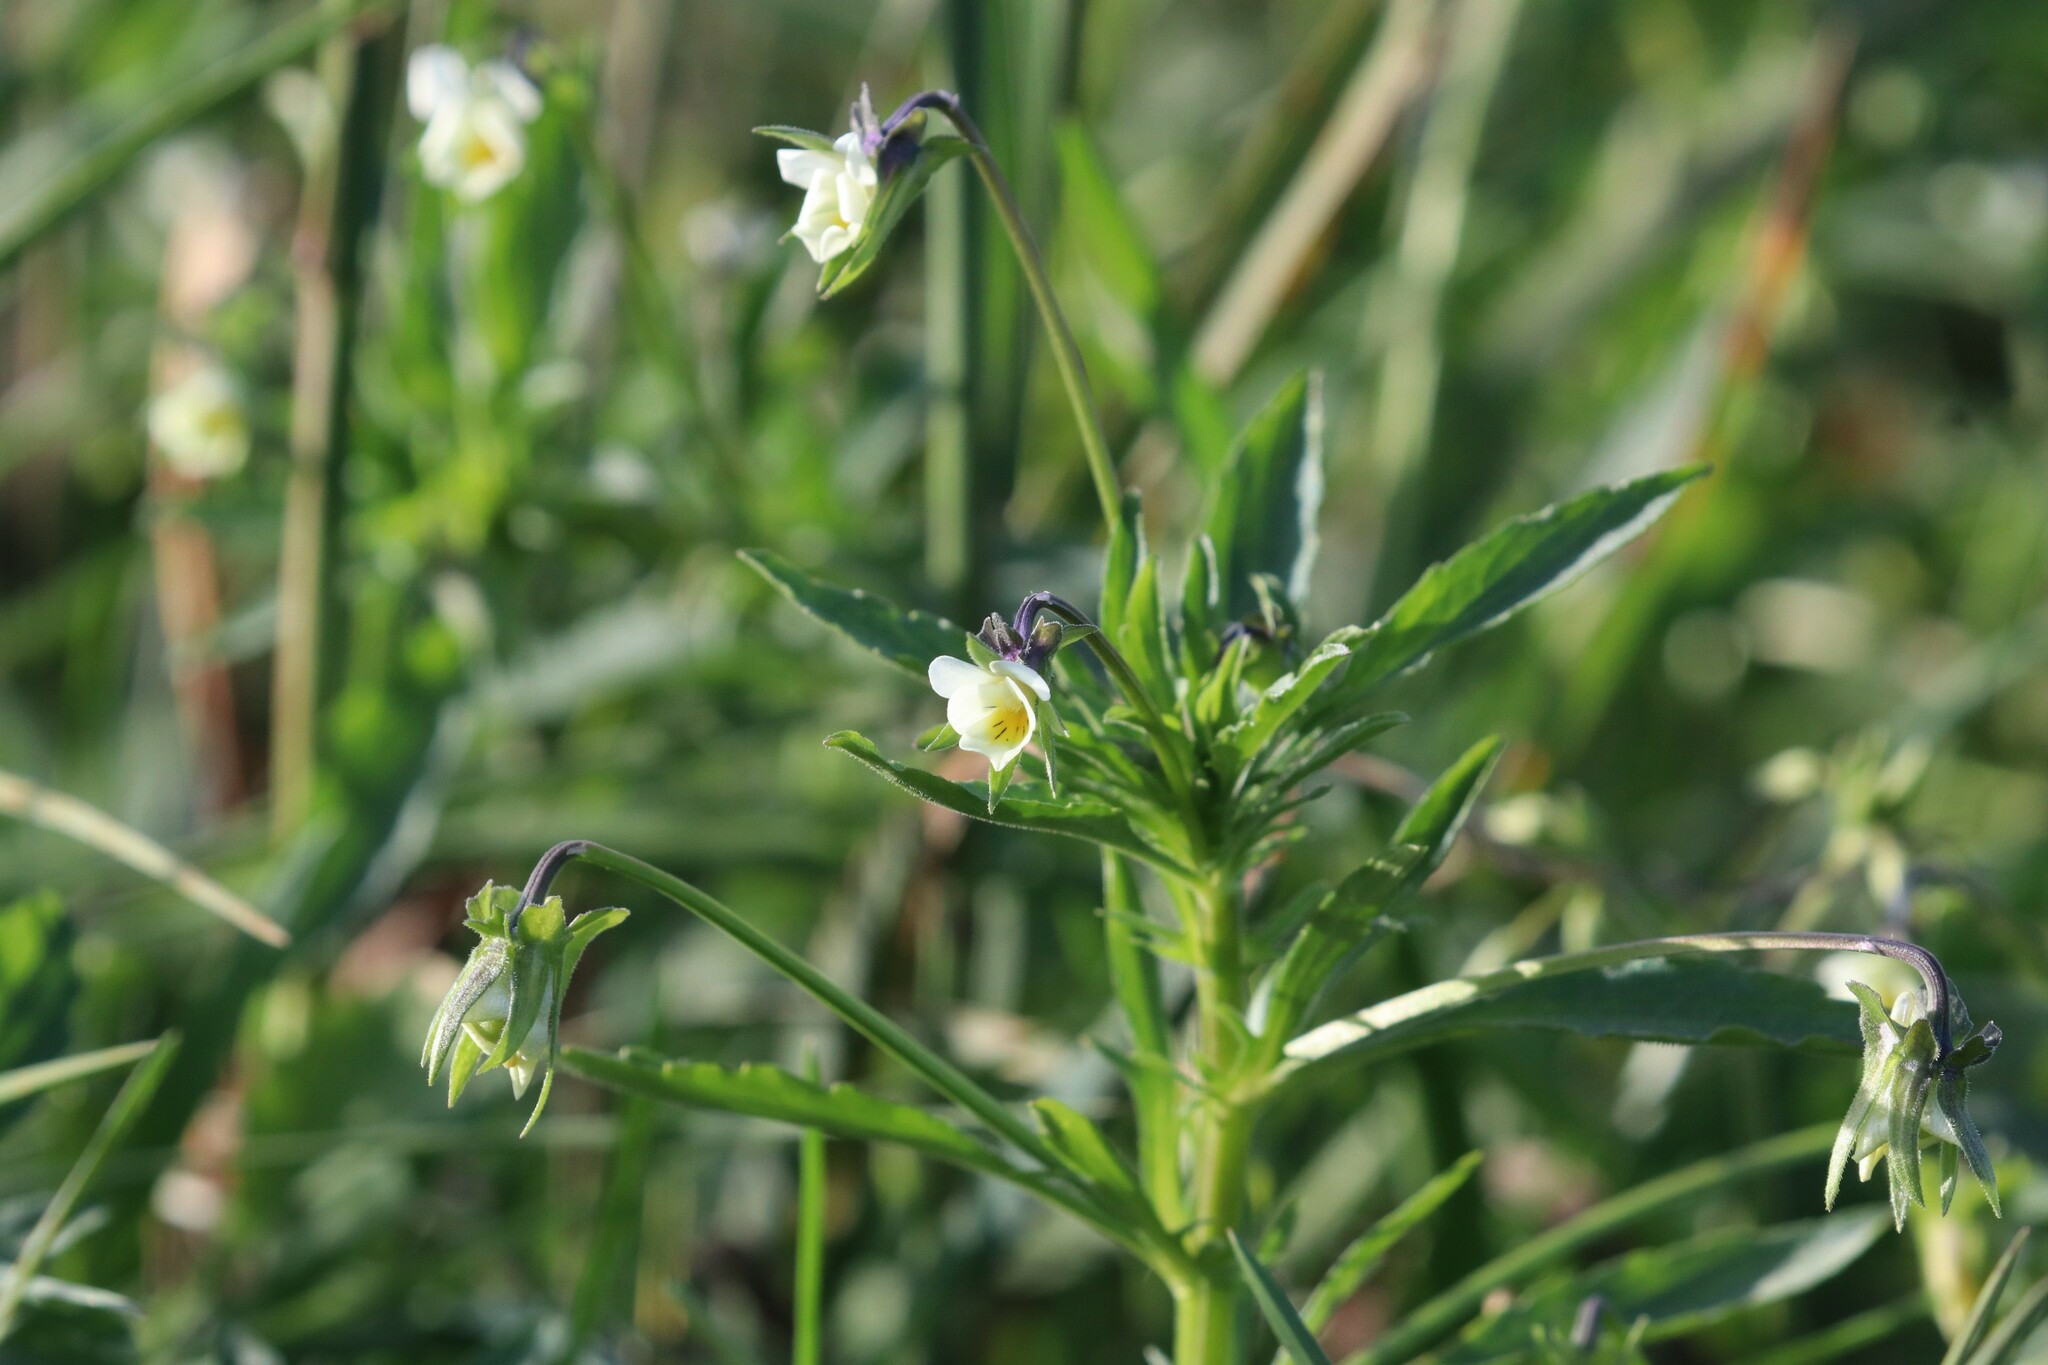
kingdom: Plantae
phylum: Tracheophyta
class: Magnoliopsida
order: Malpighiales
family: Violaceae
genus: Viola
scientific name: Viola arvensis
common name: Field pansy
